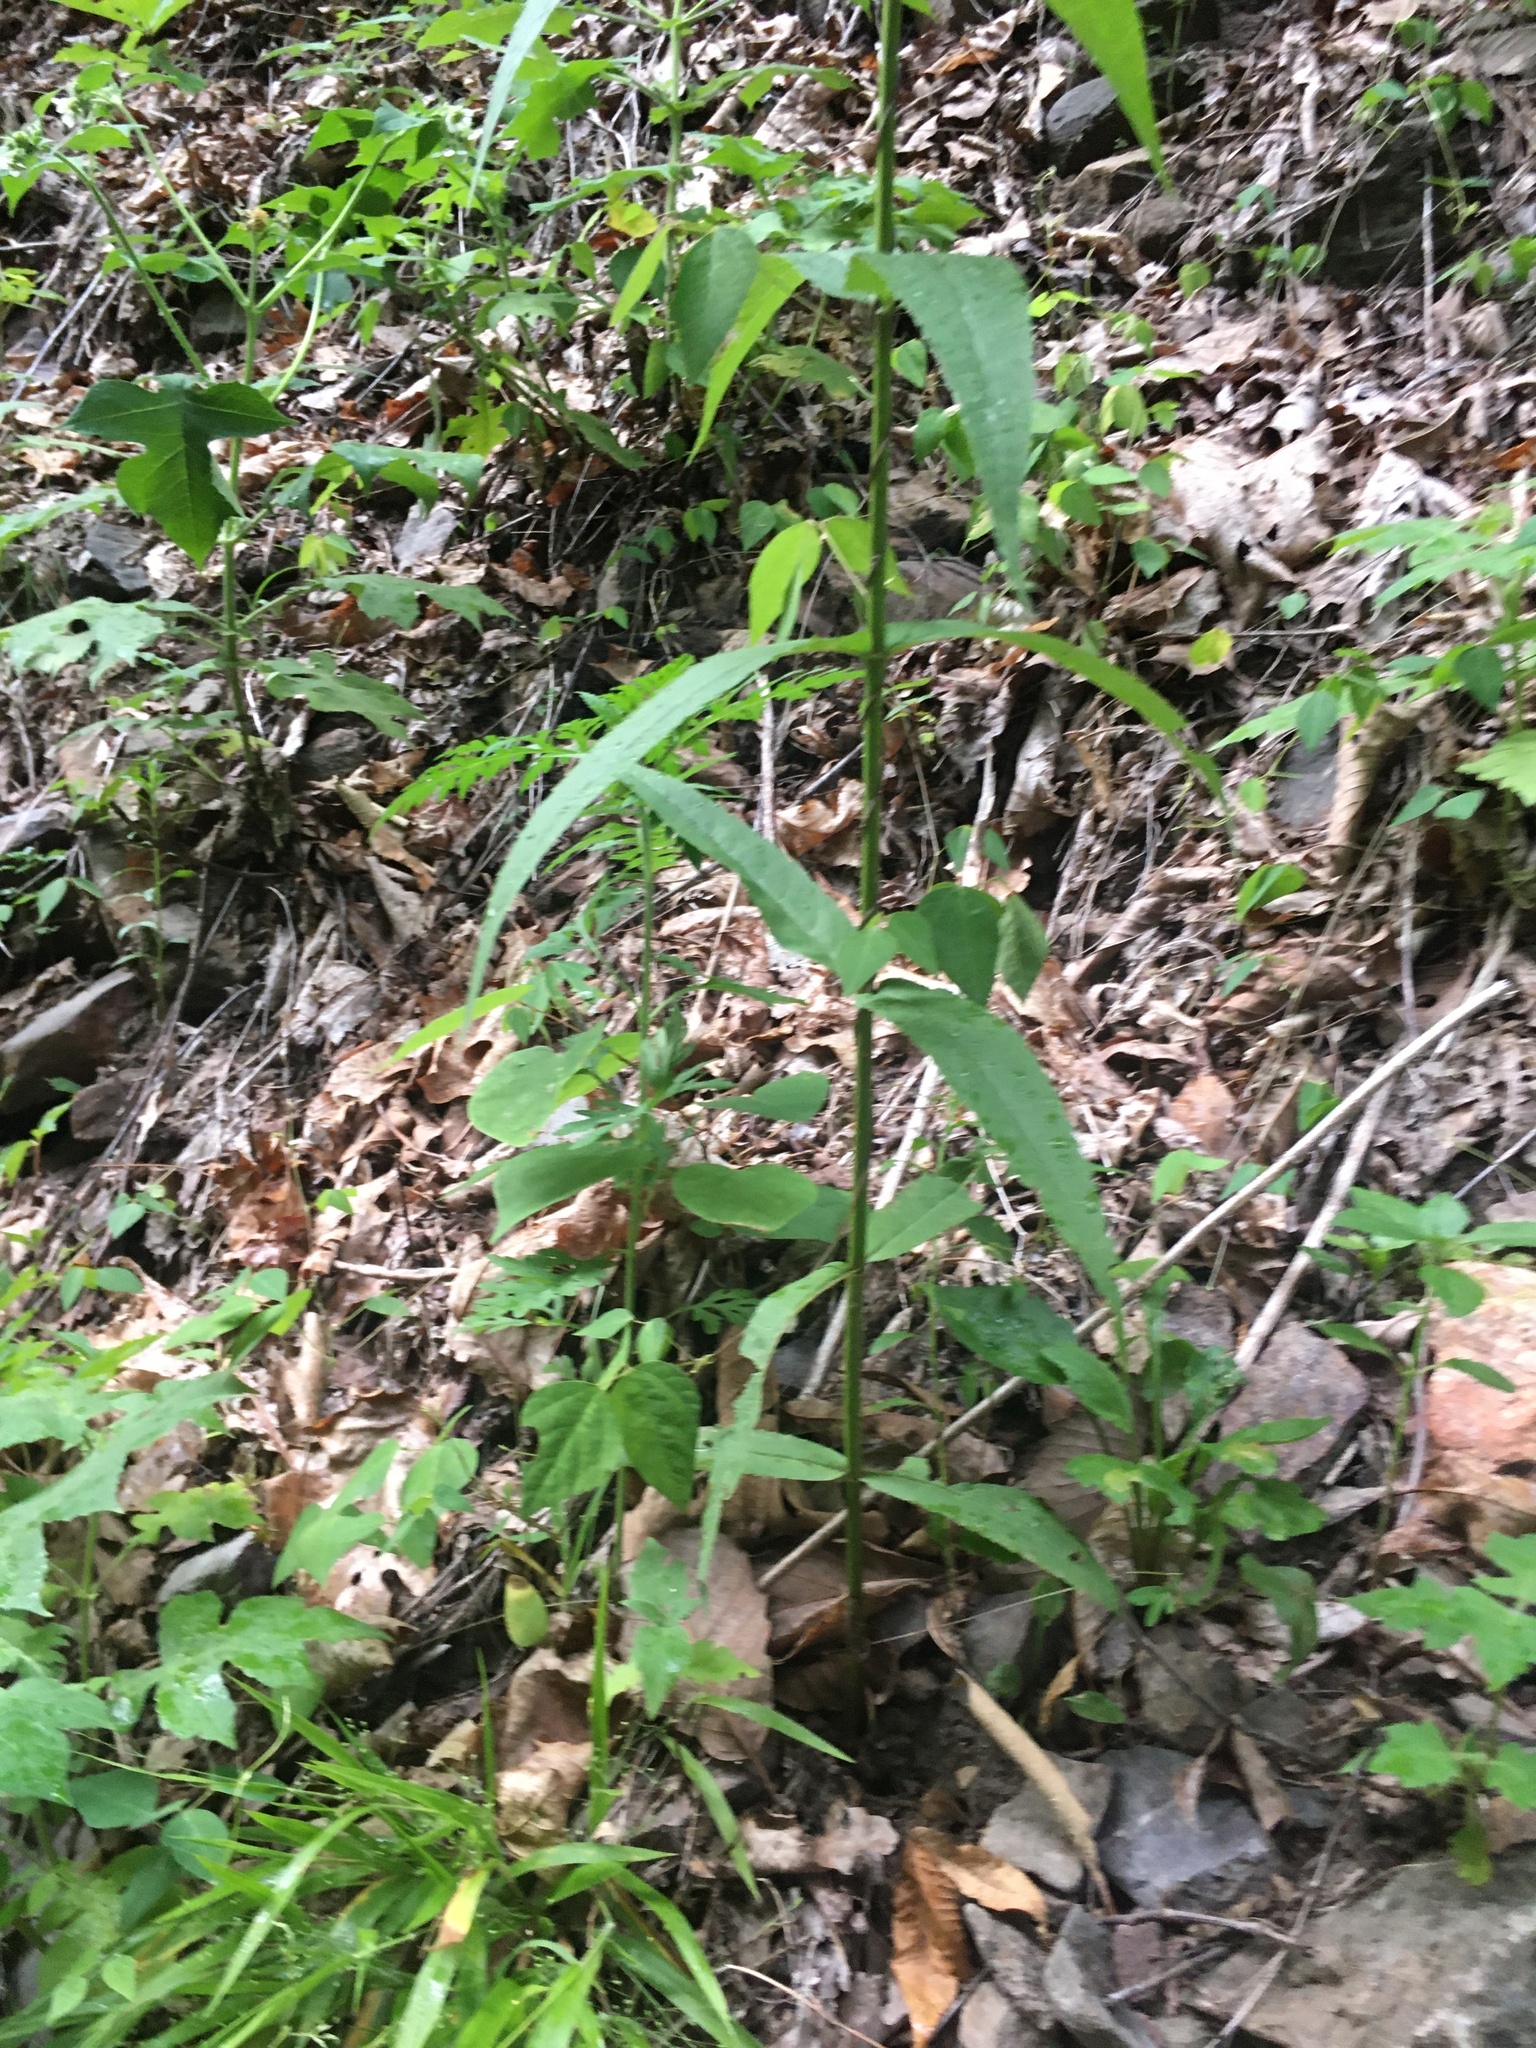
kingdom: Plantae
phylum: Tracheophyta
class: Magnoliopsida
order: Asterales
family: Asteraceae
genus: Eupatorium
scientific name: Eupatorium sessilifolium
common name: Upland boneset
